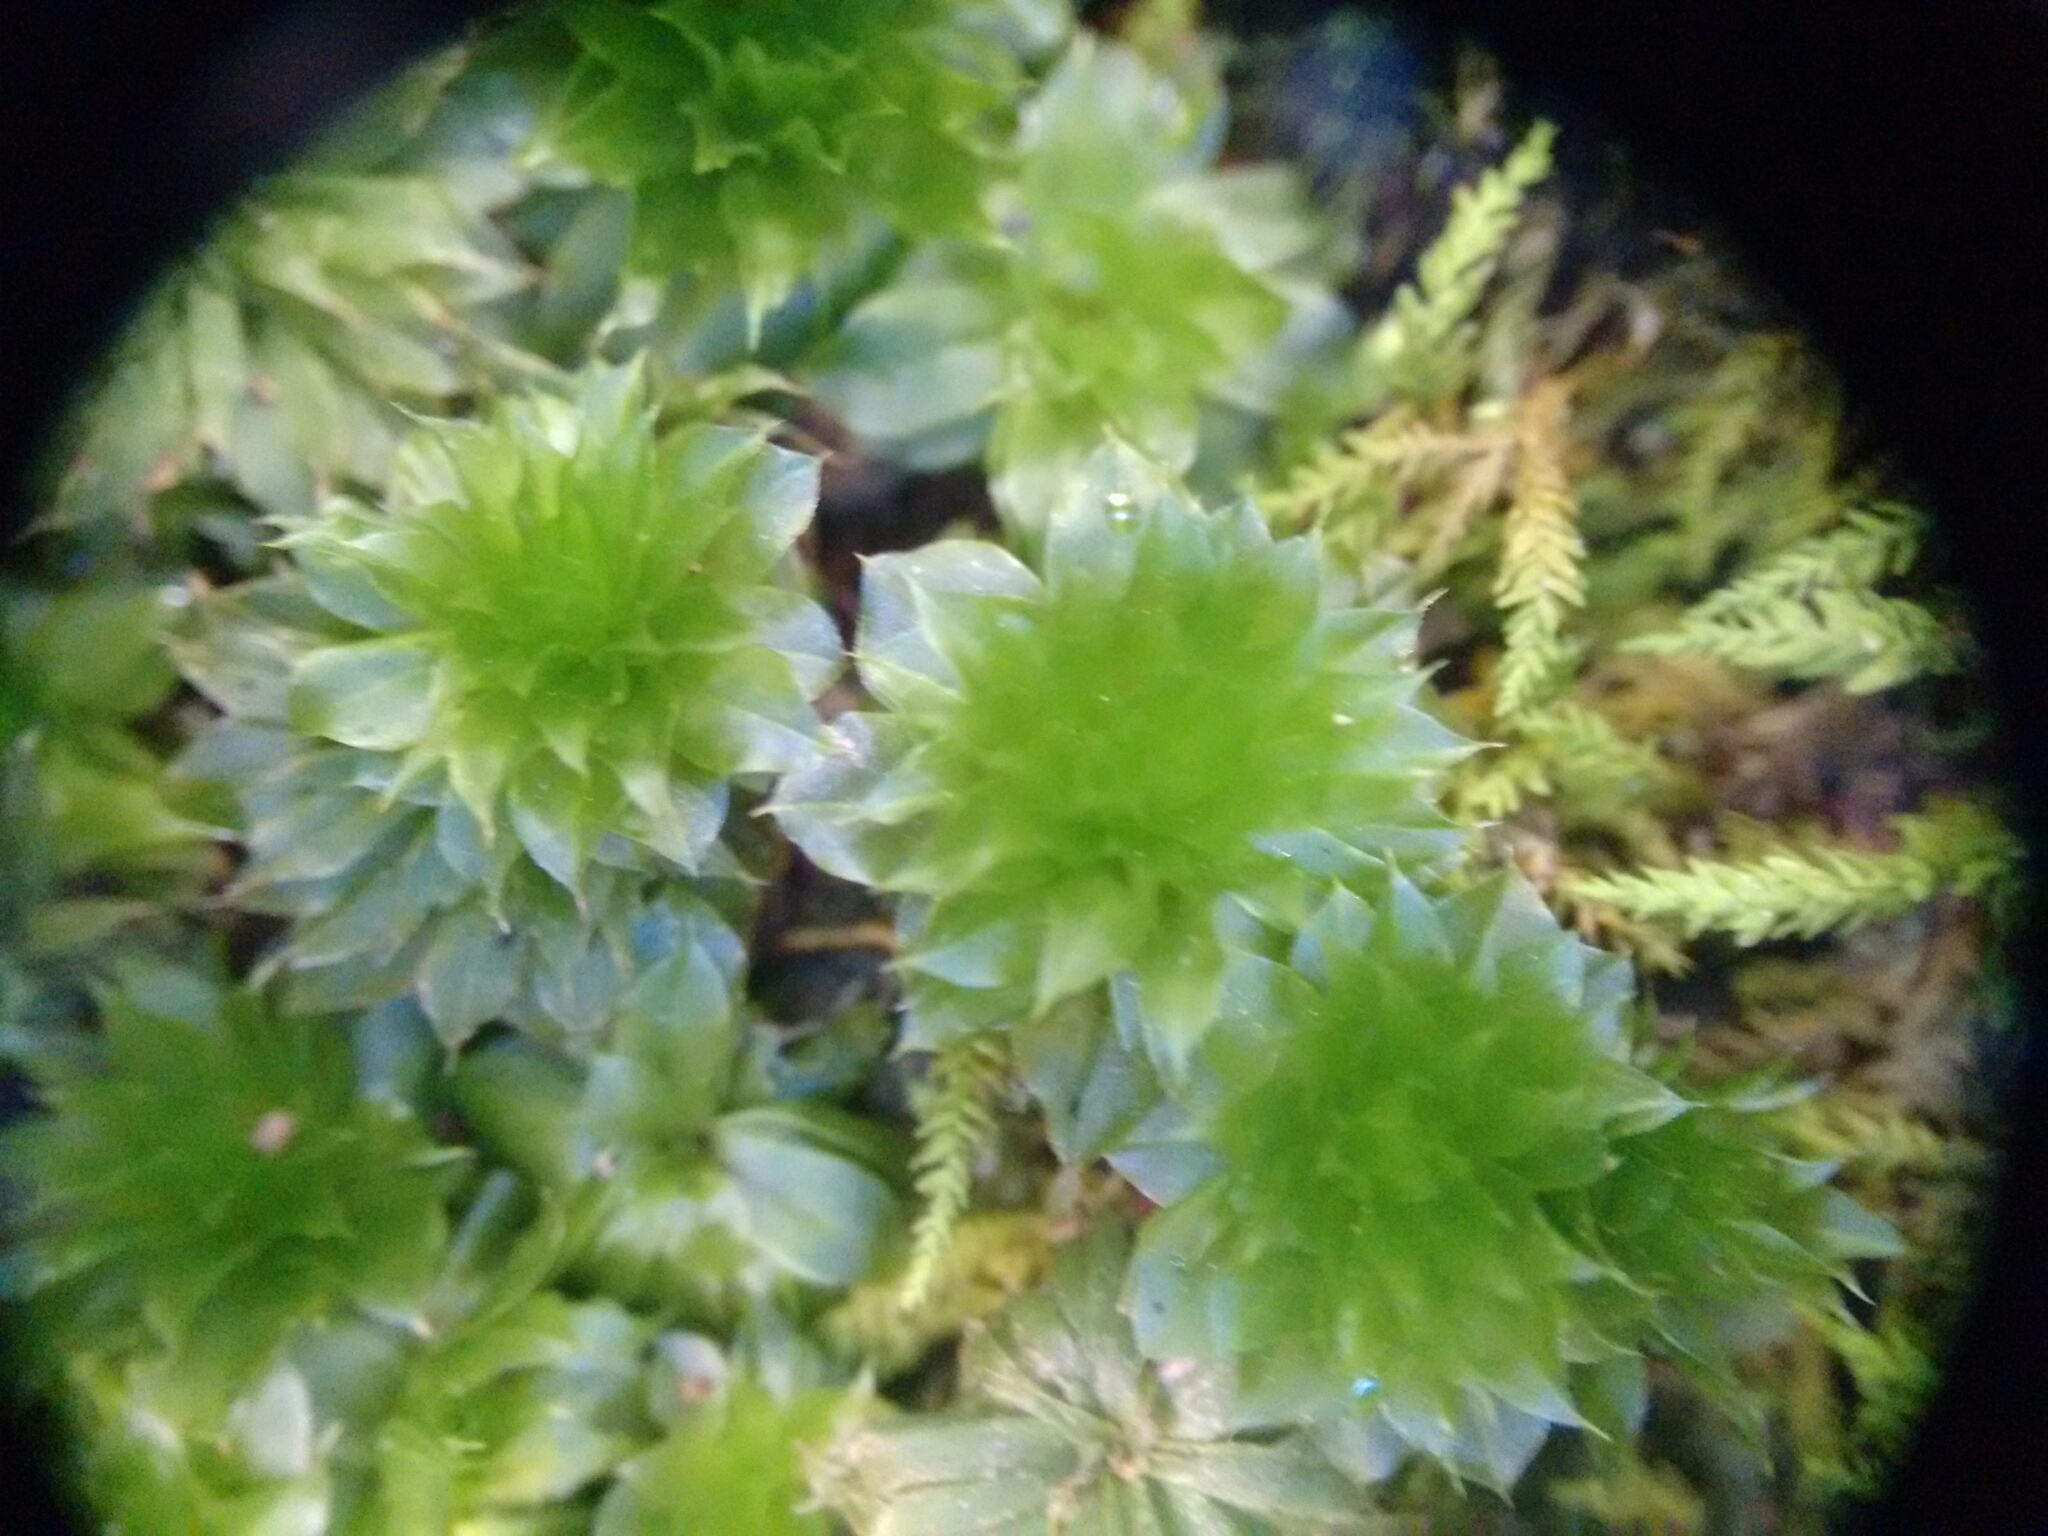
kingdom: Plantae
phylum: Bryophyta
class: Bryopsida
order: Bryales
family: Bryaceae
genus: Rhodobryum
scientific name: Rhodobryum ontariense
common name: Ontario rhodobryum moss
